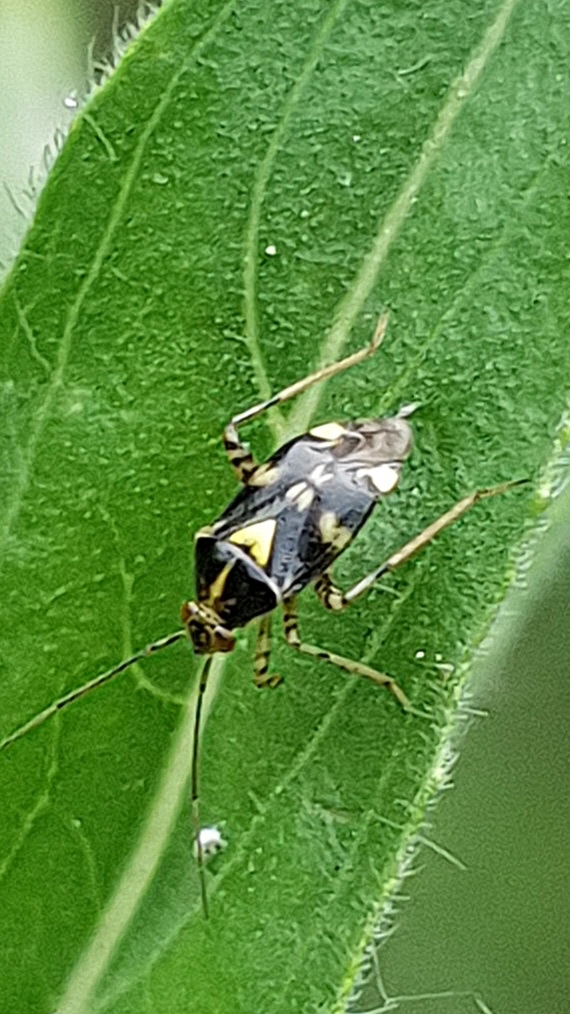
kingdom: Animalia
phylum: Arthropoda
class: Insecta
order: Hemiptera
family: Miridae
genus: Liocoris
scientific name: Liocoris tripustulatus
